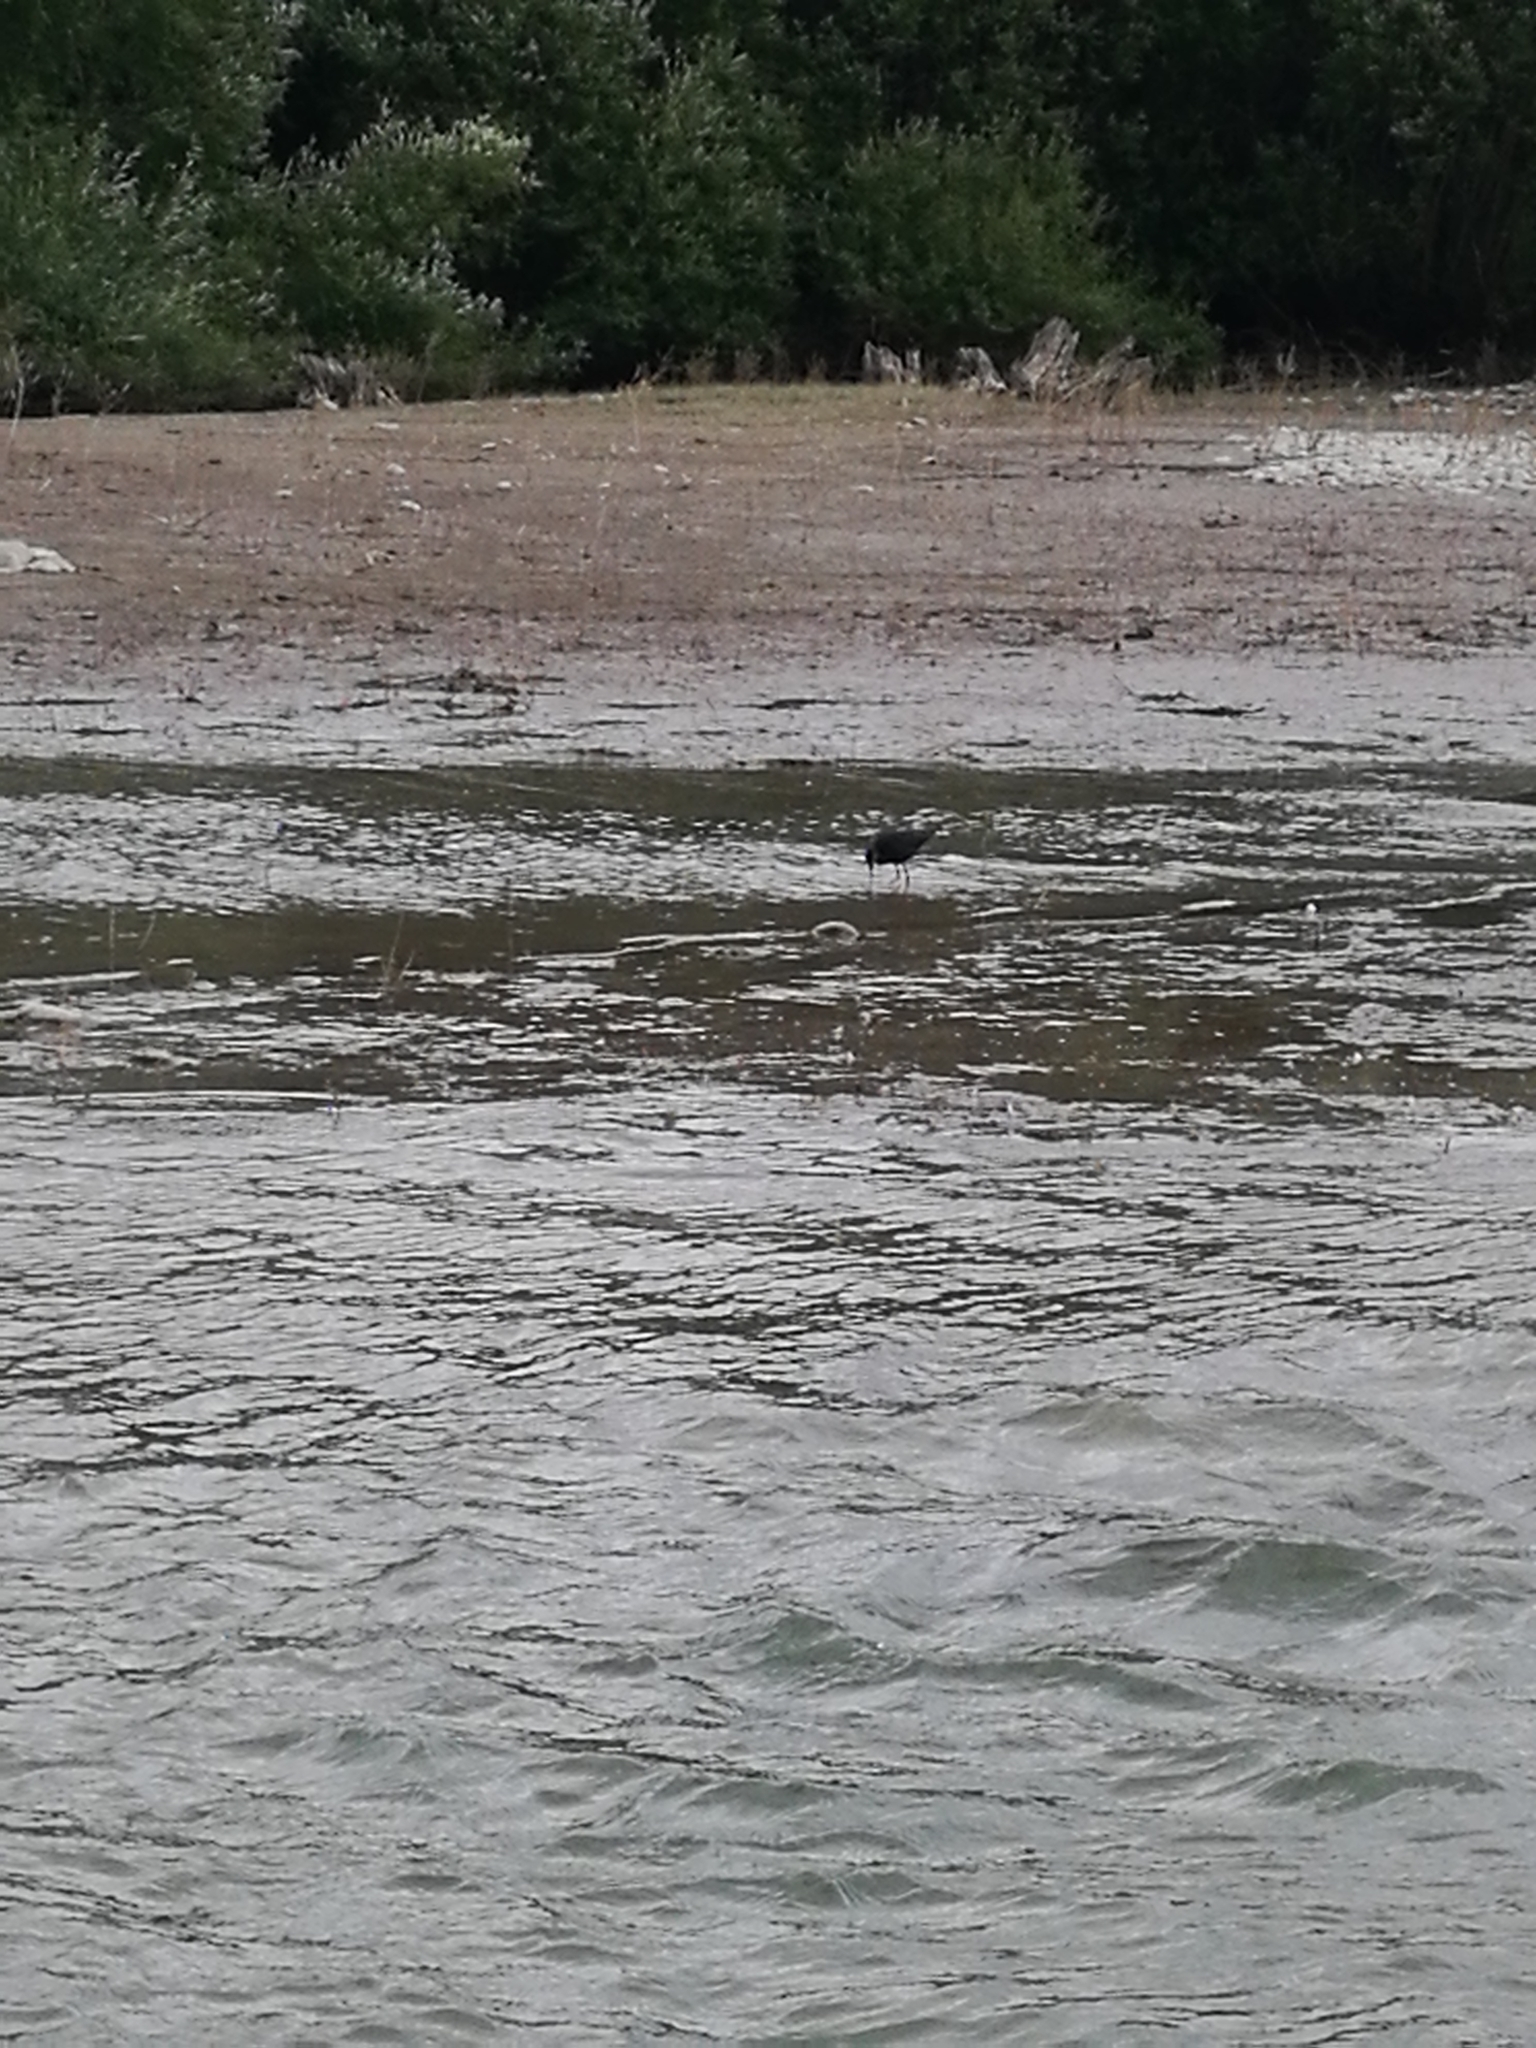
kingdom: Animalia
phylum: Chordata
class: Aves
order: Charadriiformes
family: Recurvirostridae
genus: Himantopus
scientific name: Himantopus novaezelandiae
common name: Black stilt
